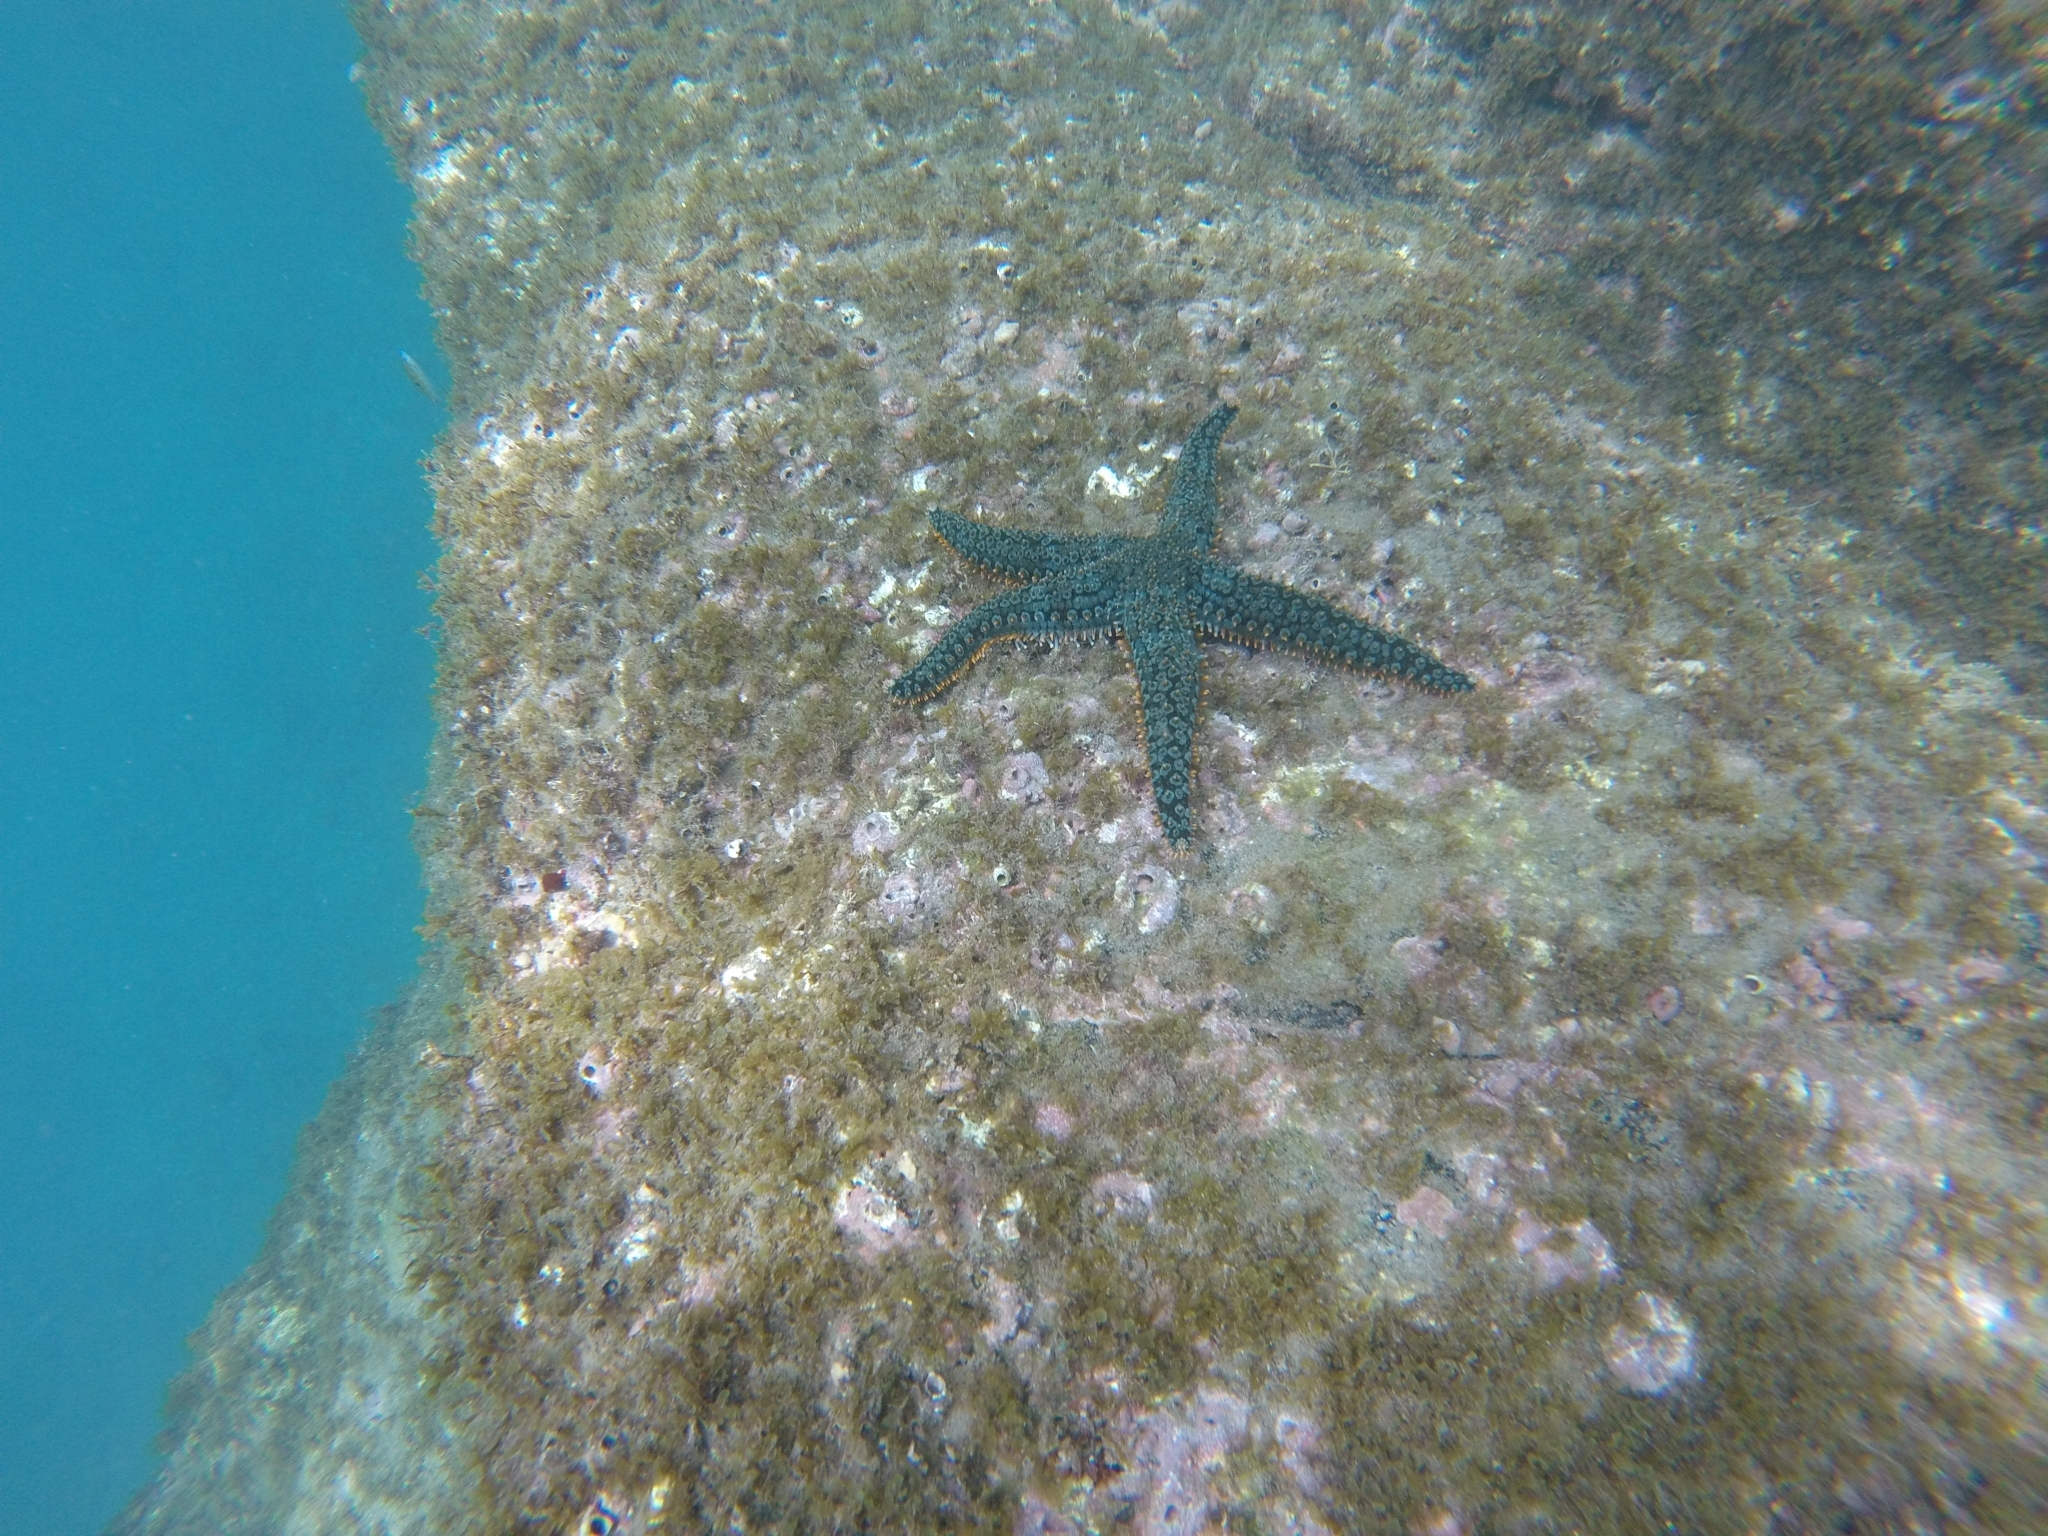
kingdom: Animalia
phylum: Echinodermata
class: Asteroidea
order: Forcipulatida
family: Asteriidae
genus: Marthasterias
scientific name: Marthasterias glacialis
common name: Spiny starfish
